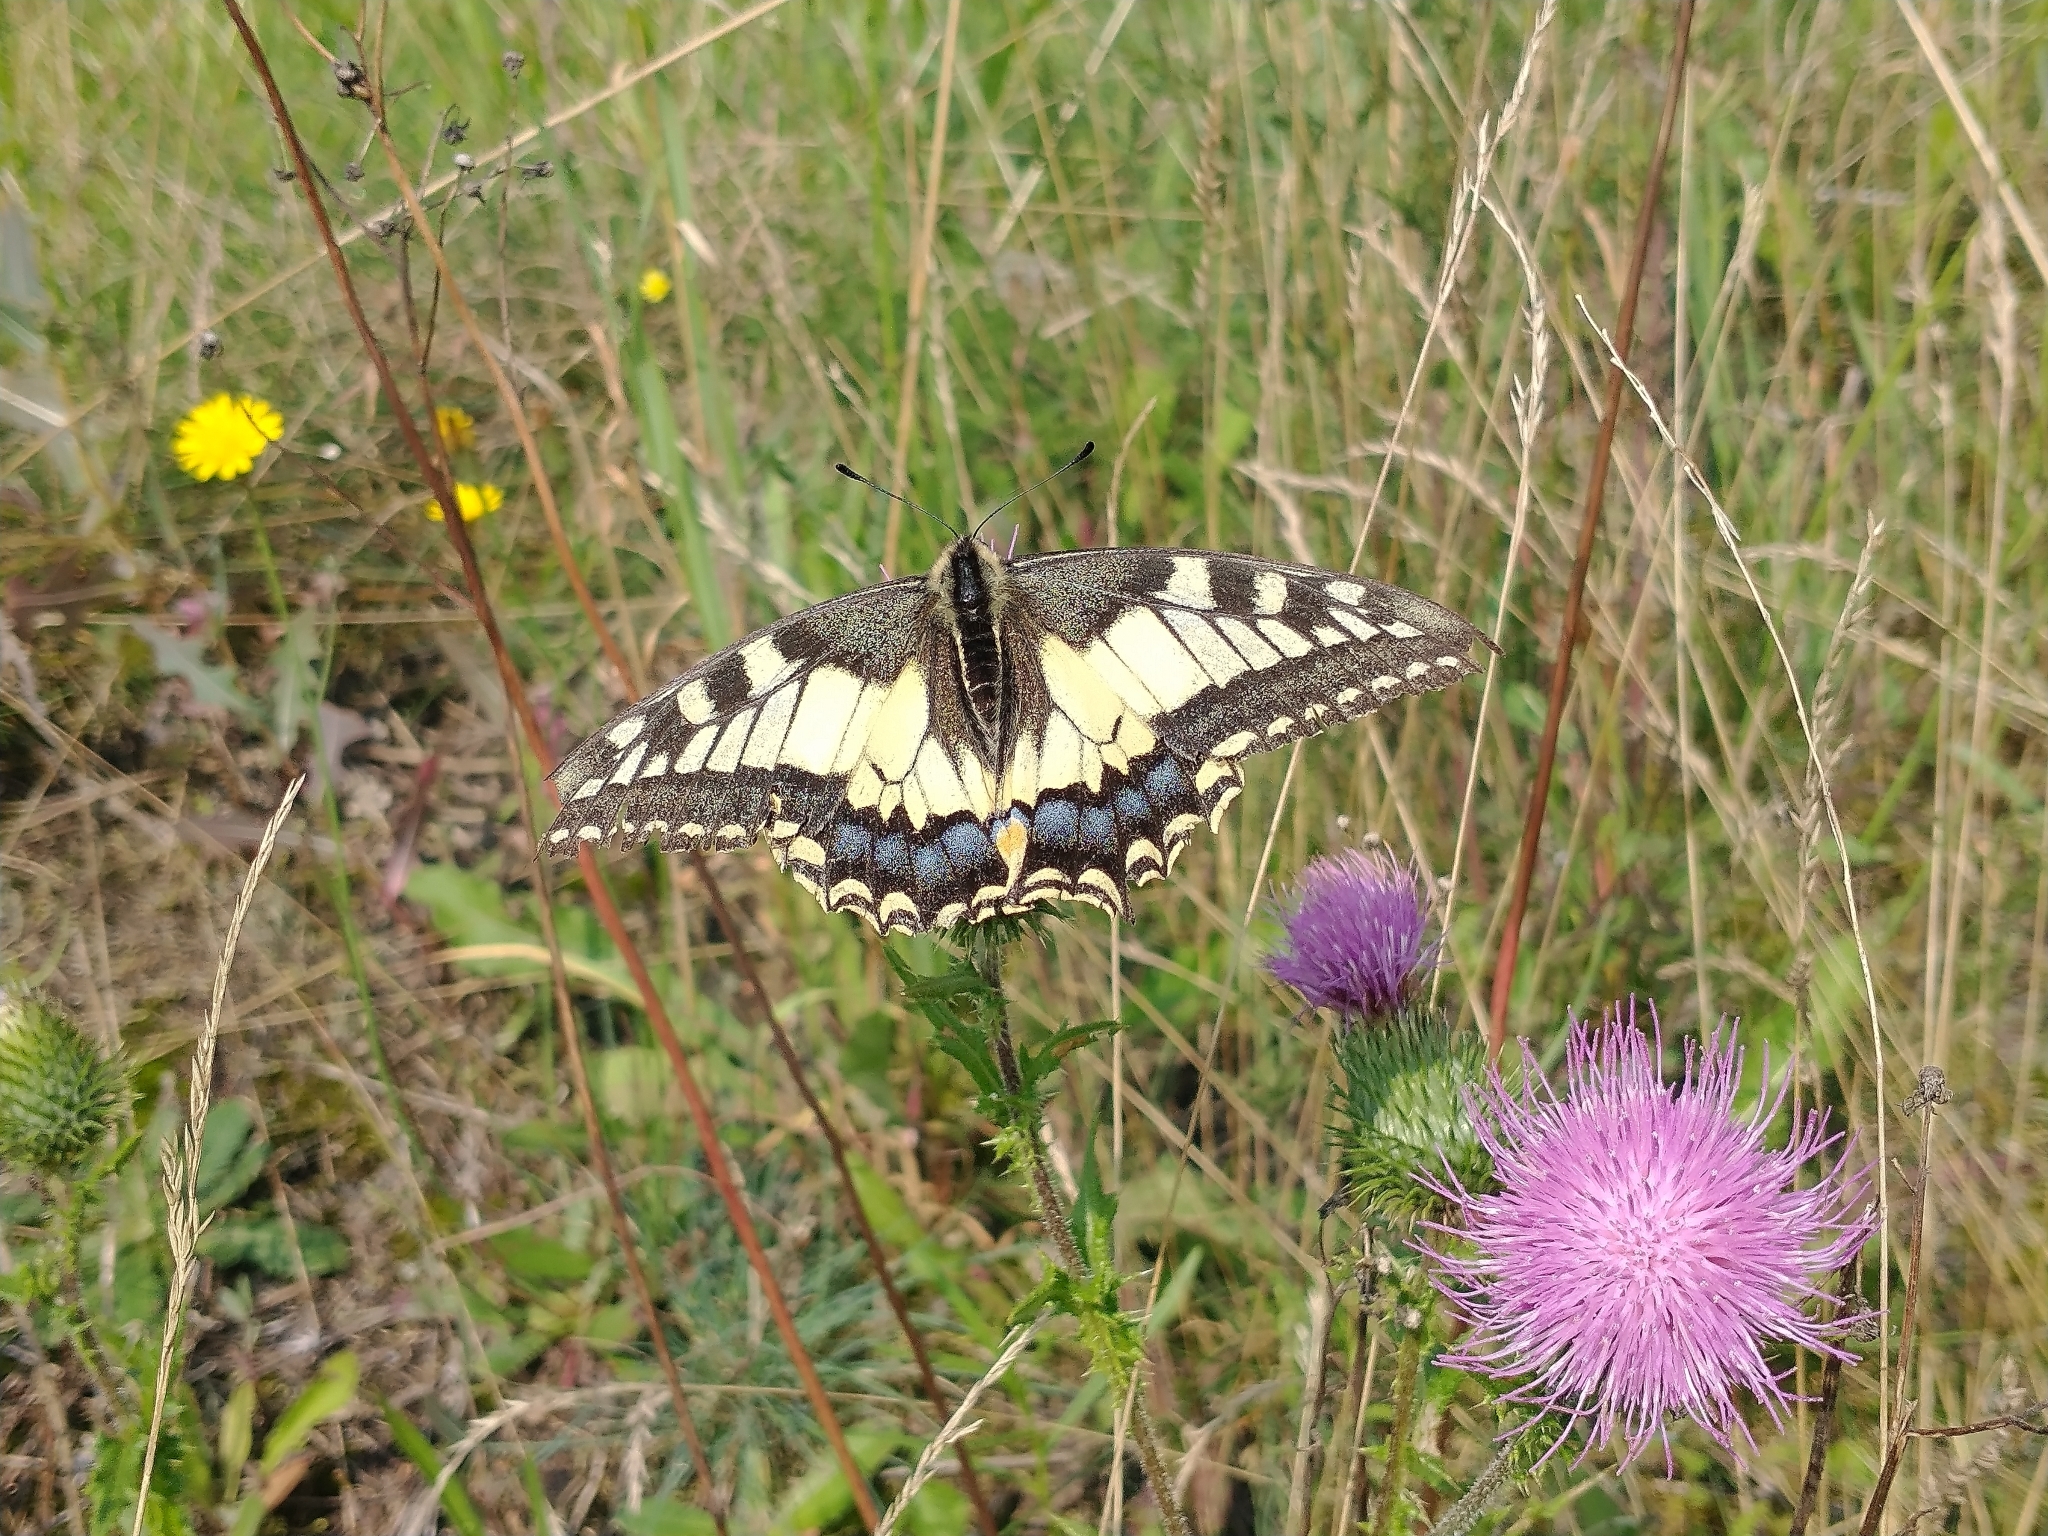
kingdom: Animalia
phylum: Arthropoda
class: Insecta
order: Lepidoptera
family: Papilionidae
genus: Papilio
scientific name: Papilio machaon
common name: Swallowtail
